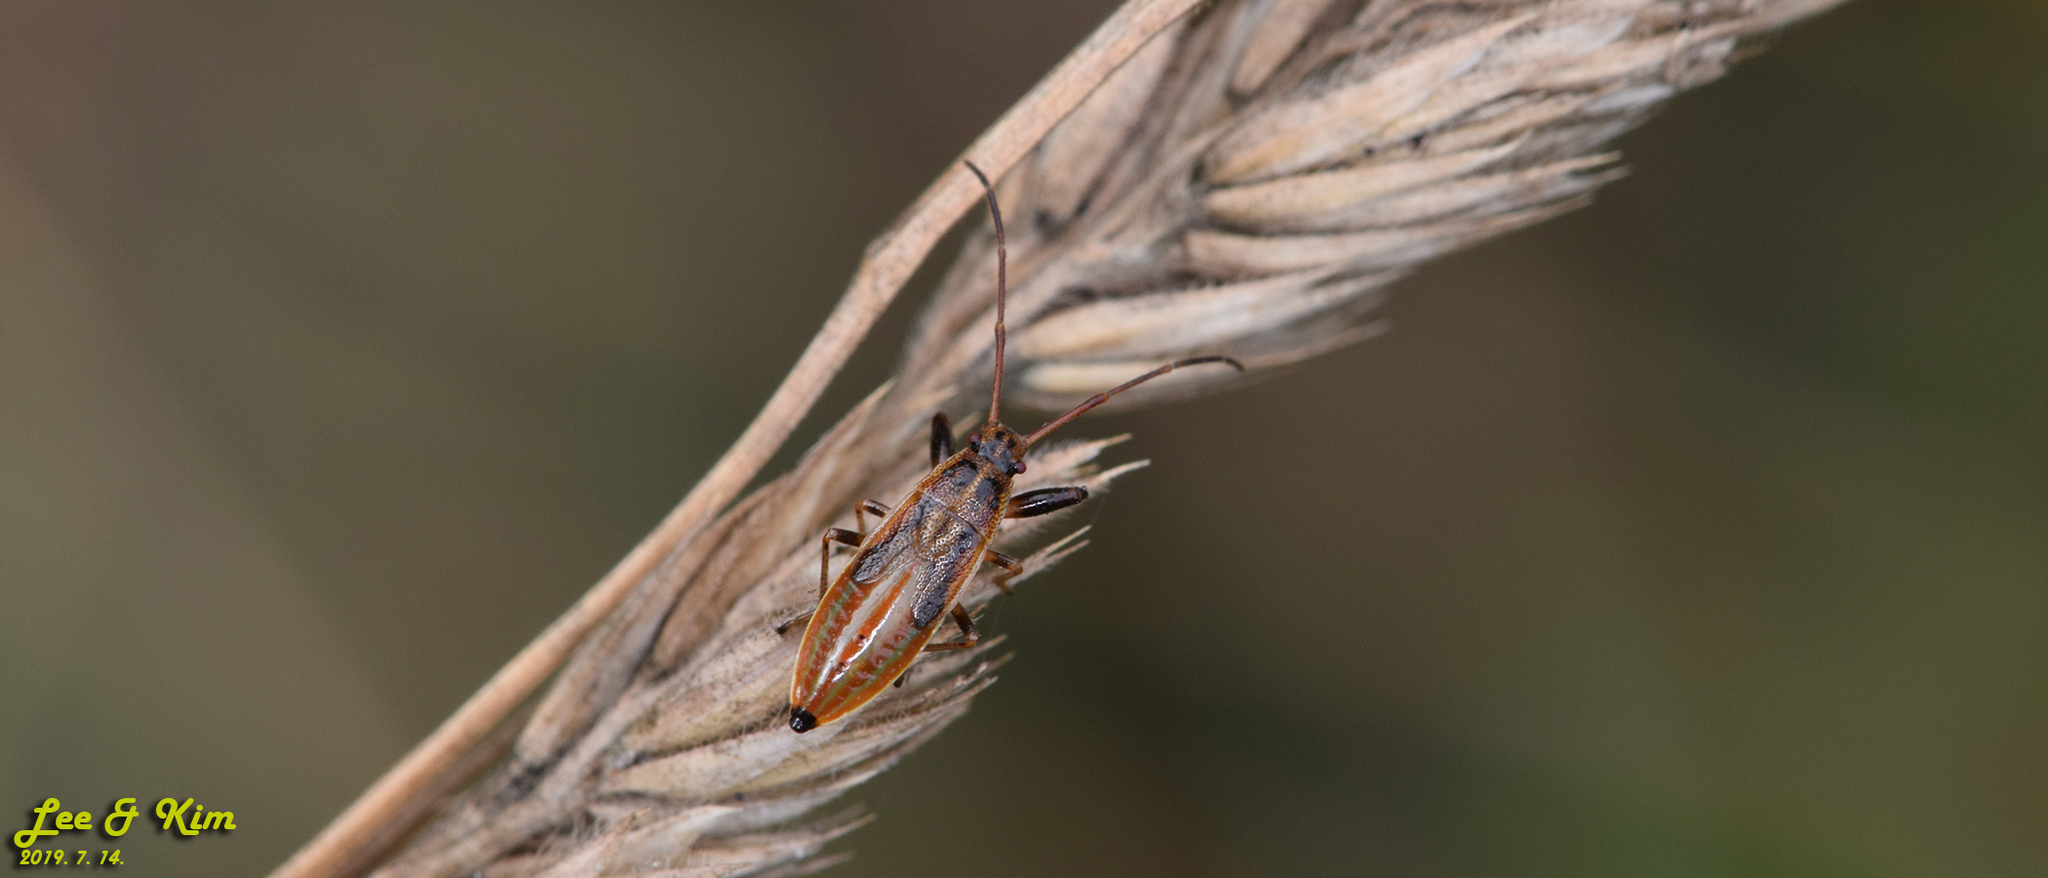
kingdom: Animalia
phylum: Arthropoda
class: Insecta
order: Hemiptera
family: Pachygronthidae
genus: Pachygrontha
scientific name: Pachygrontha antennata
